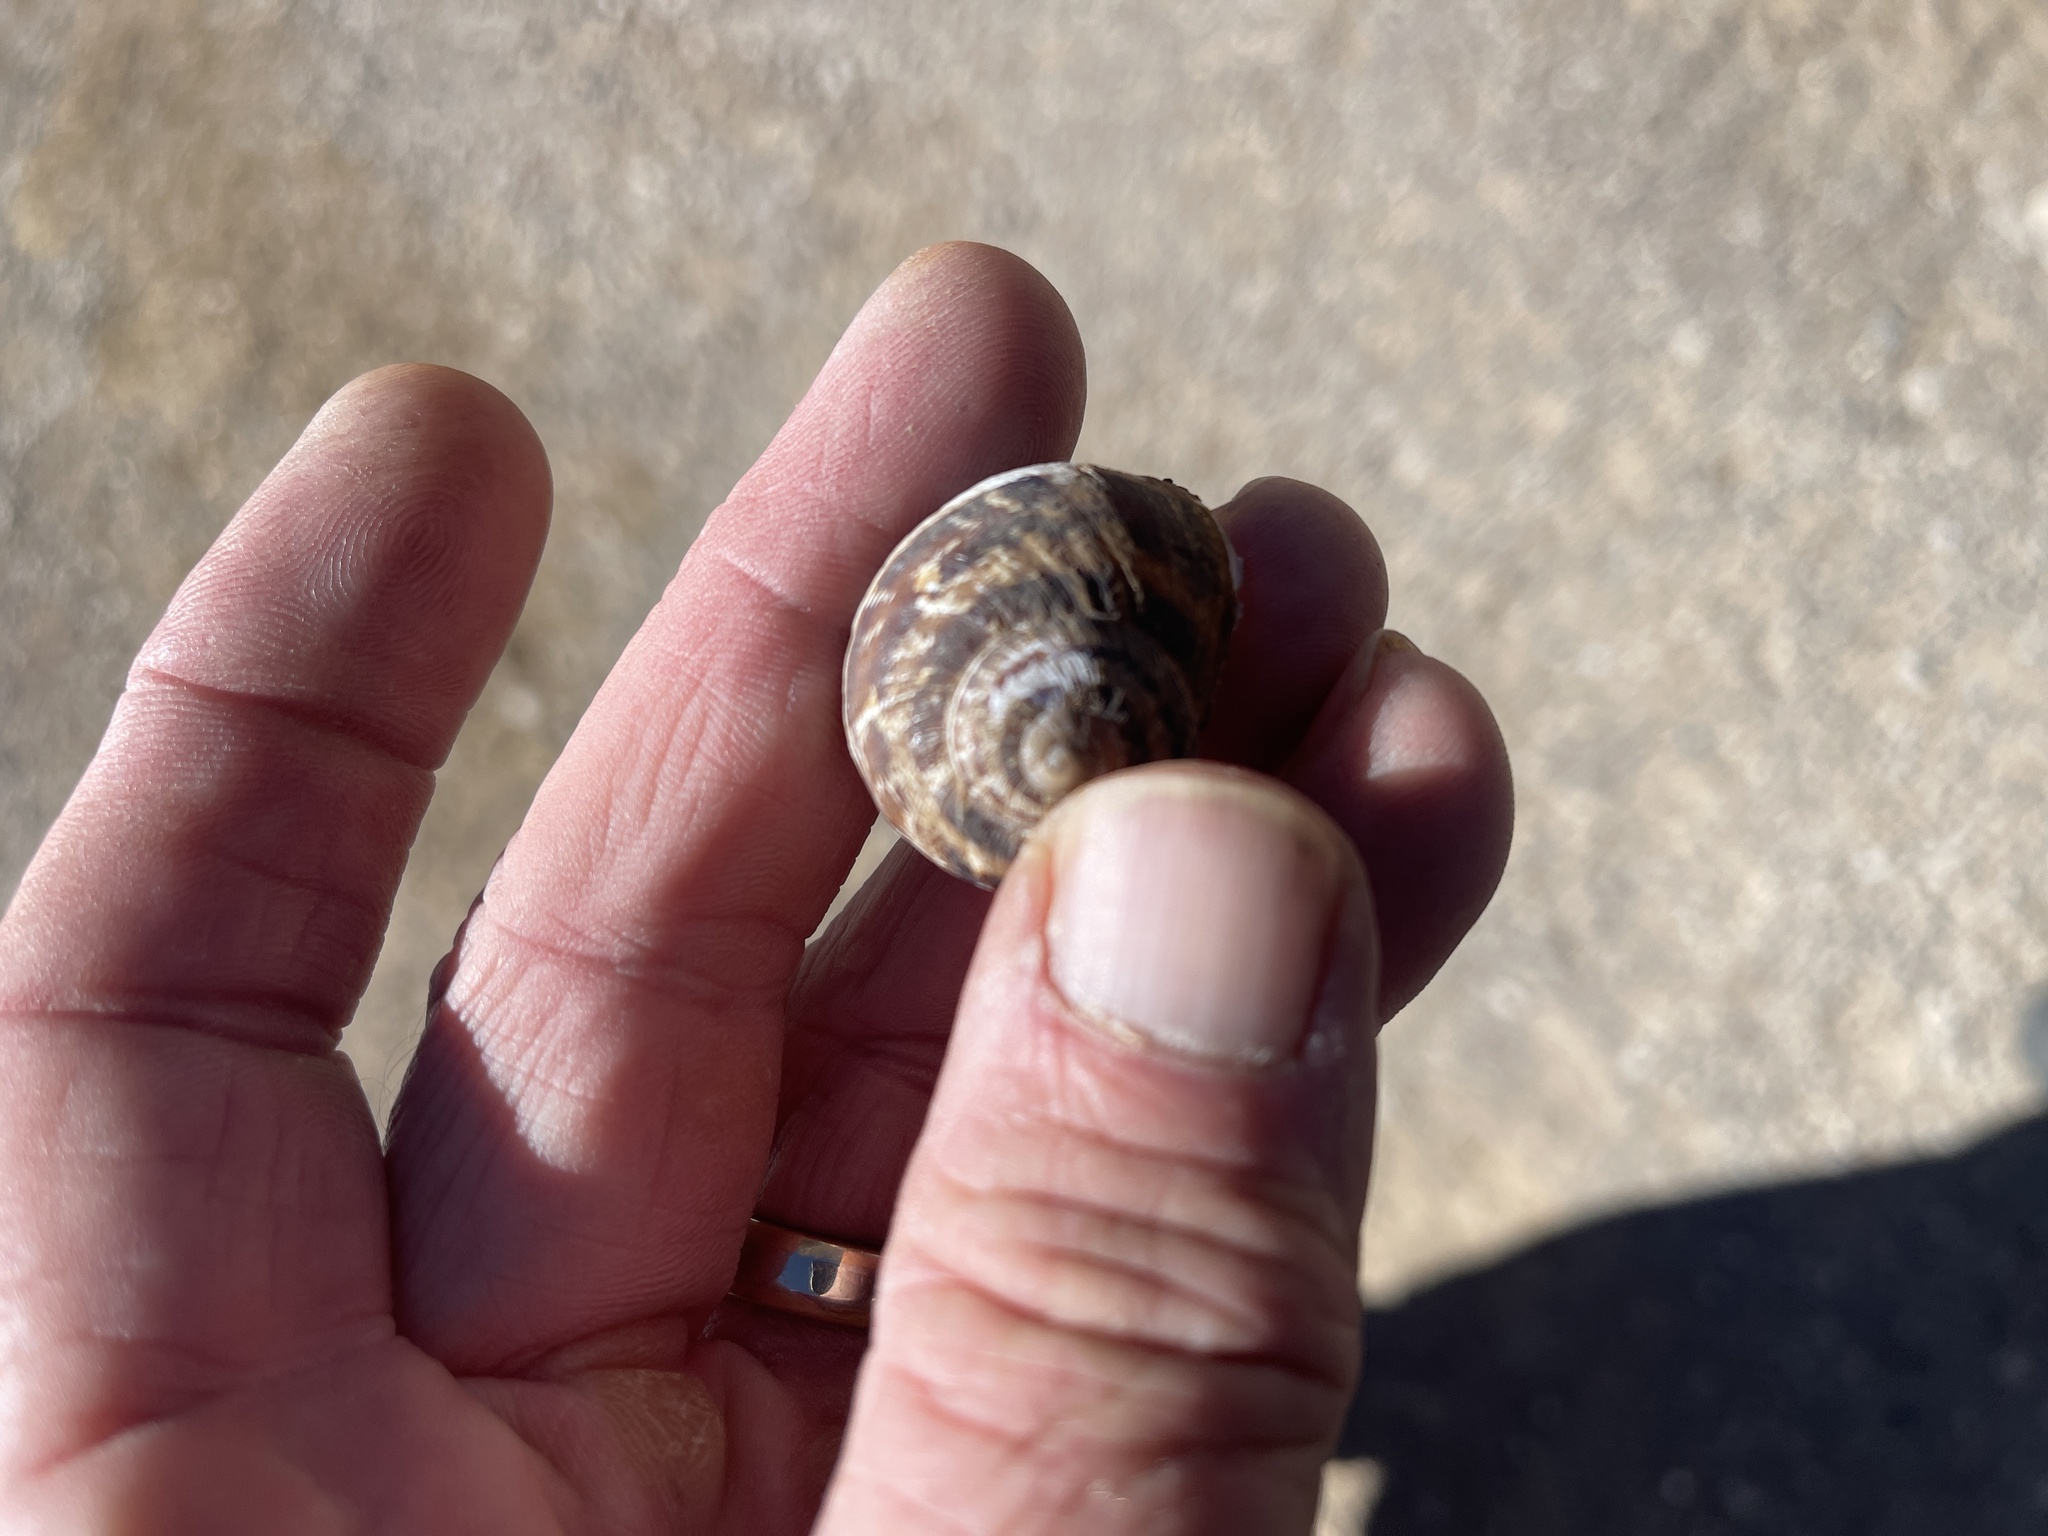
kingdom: Animalia
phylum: Mollusca
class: Gastropoda
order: Stylommatophora
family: Helicidae
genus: Cornu
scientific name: Cornu aspersum
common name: Brown garden snail
